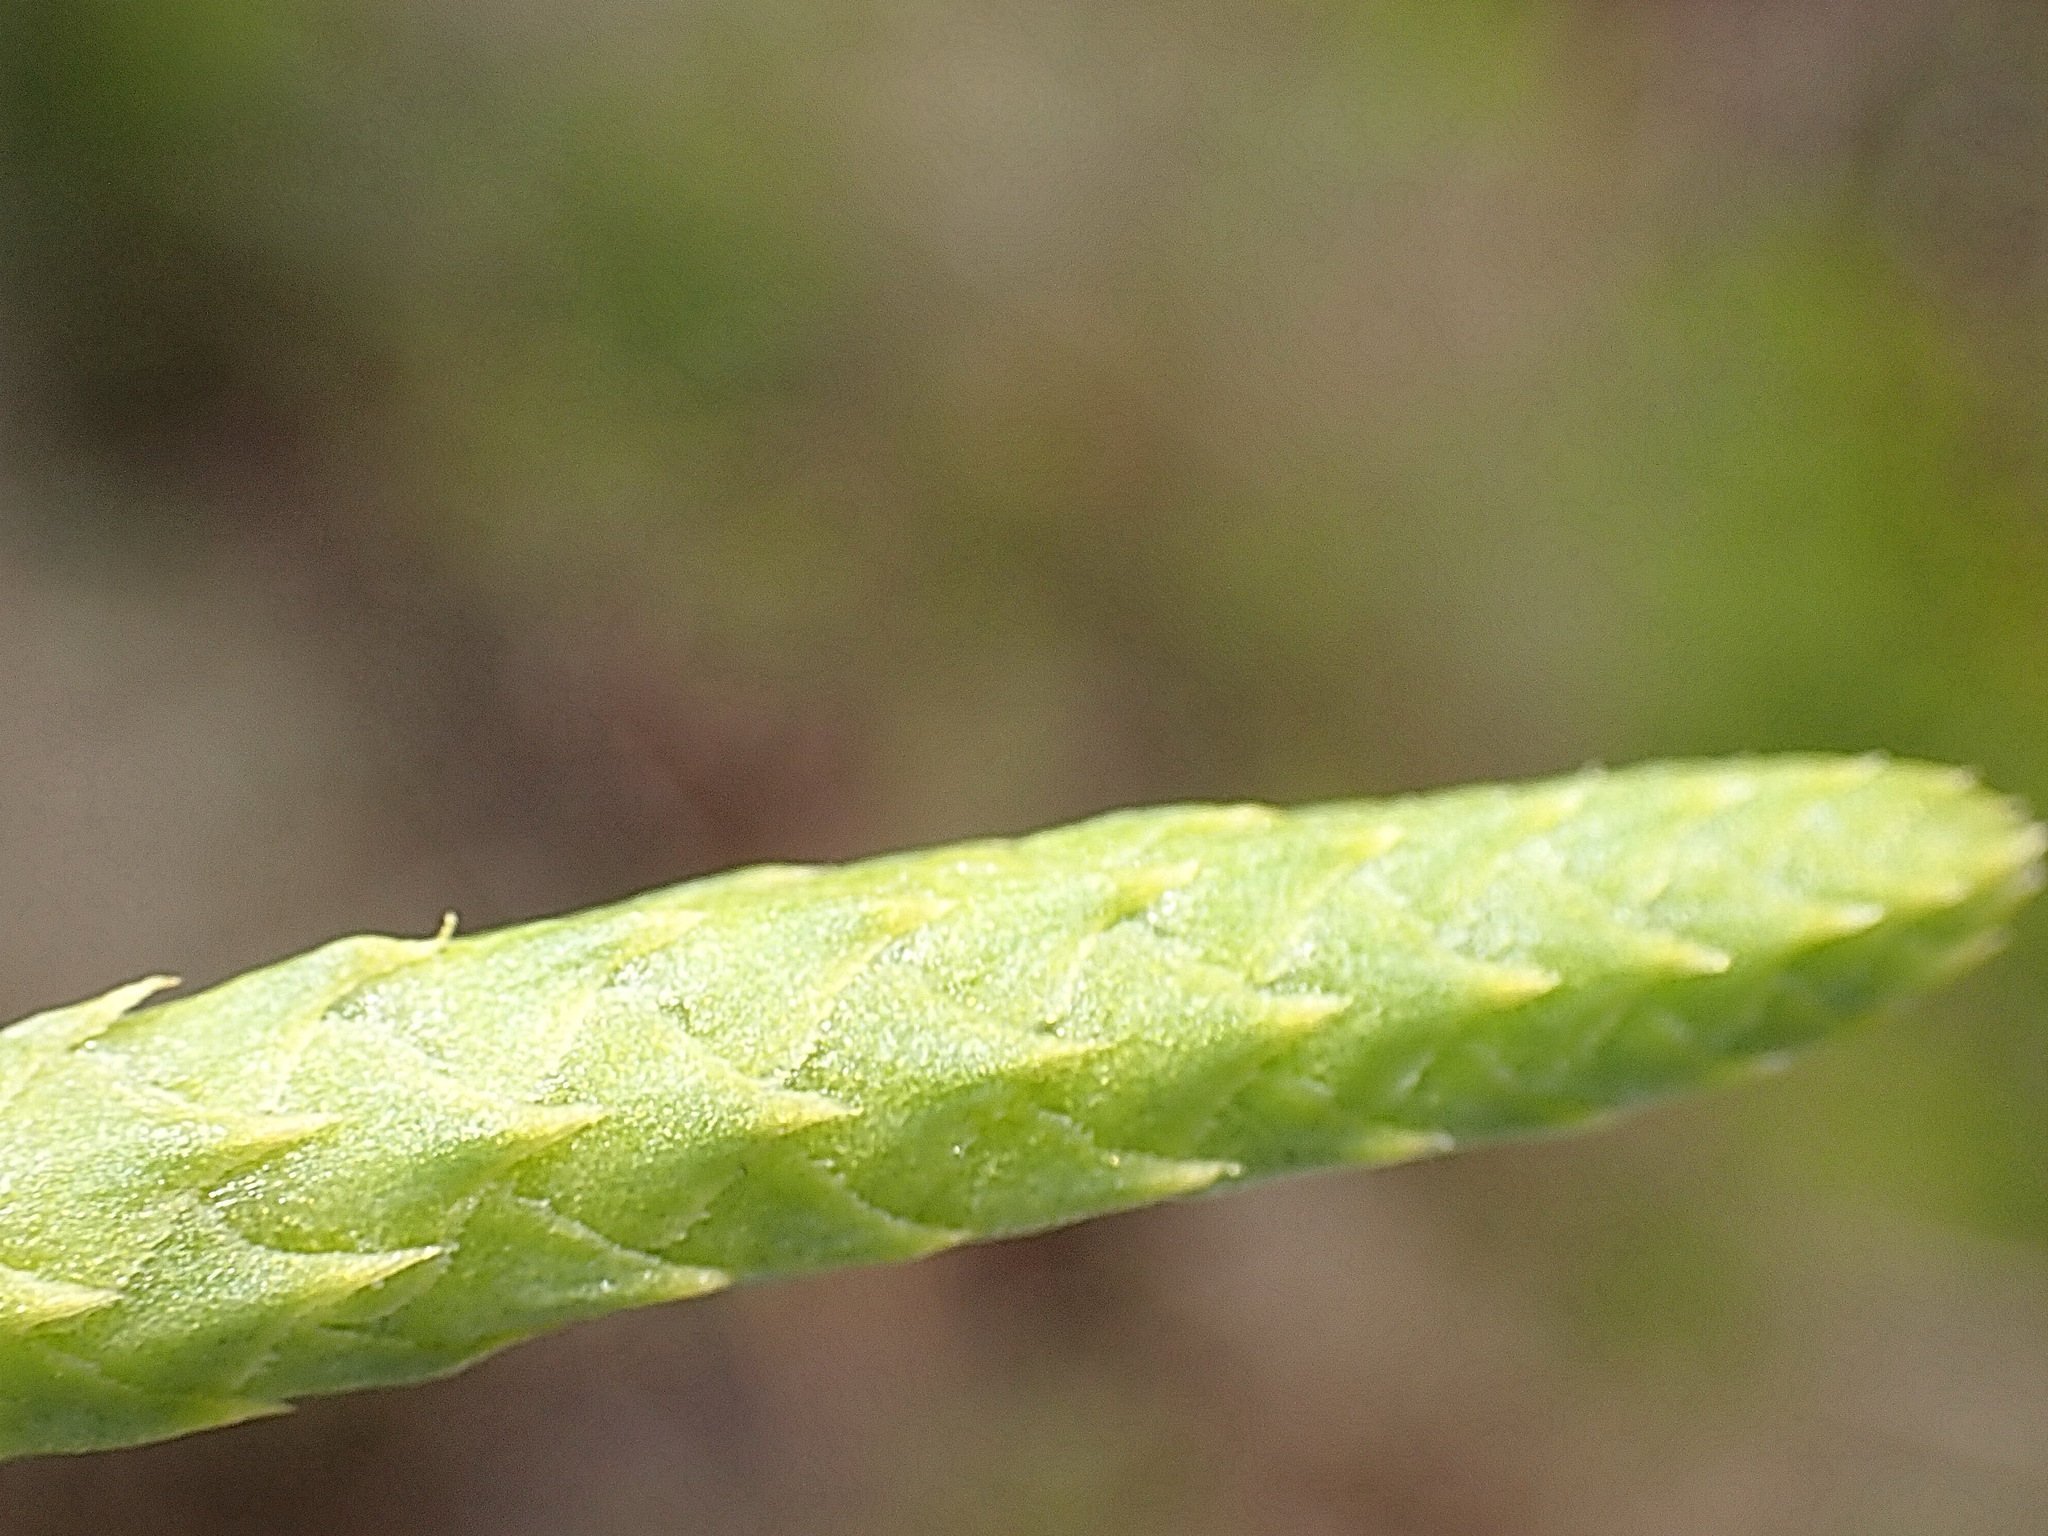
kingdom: Plantae
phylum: Tracheophyta
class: Lycopodiopsida
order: Lycopodiales
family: Lycopodiaceae
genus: Pseudolycopodiella
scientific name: Pseudolycopodiella caroliniana
